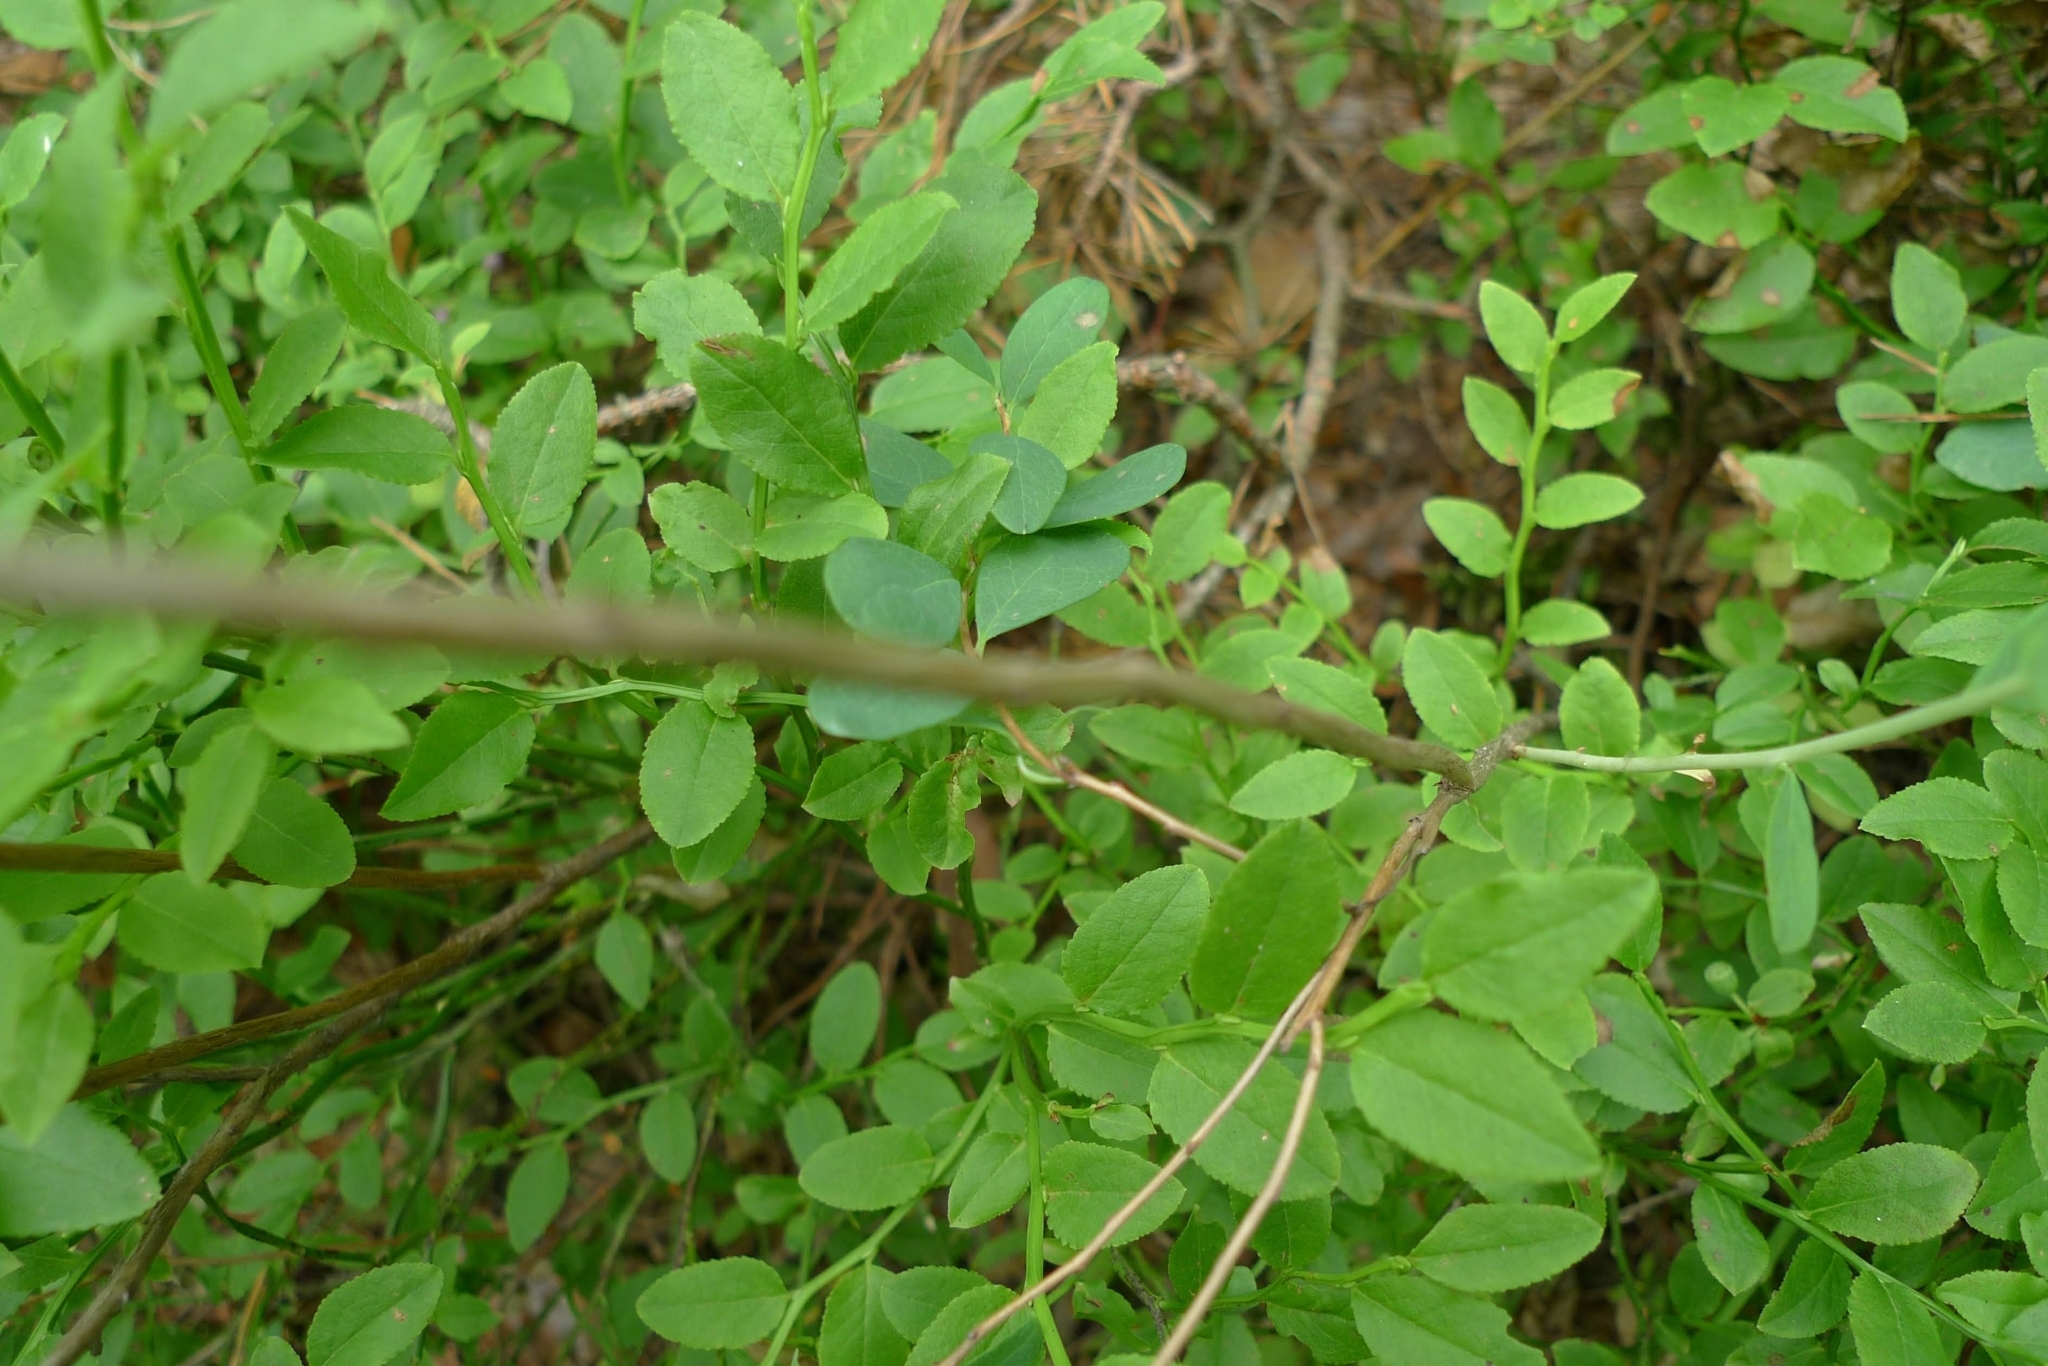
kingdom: Plantae
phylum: Tracheophyta
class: Magnoliopsida
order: Ericales
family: Ericaceae
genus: Vaccinium
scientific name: Vaccinium uliginosum
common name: Bog bilberry
